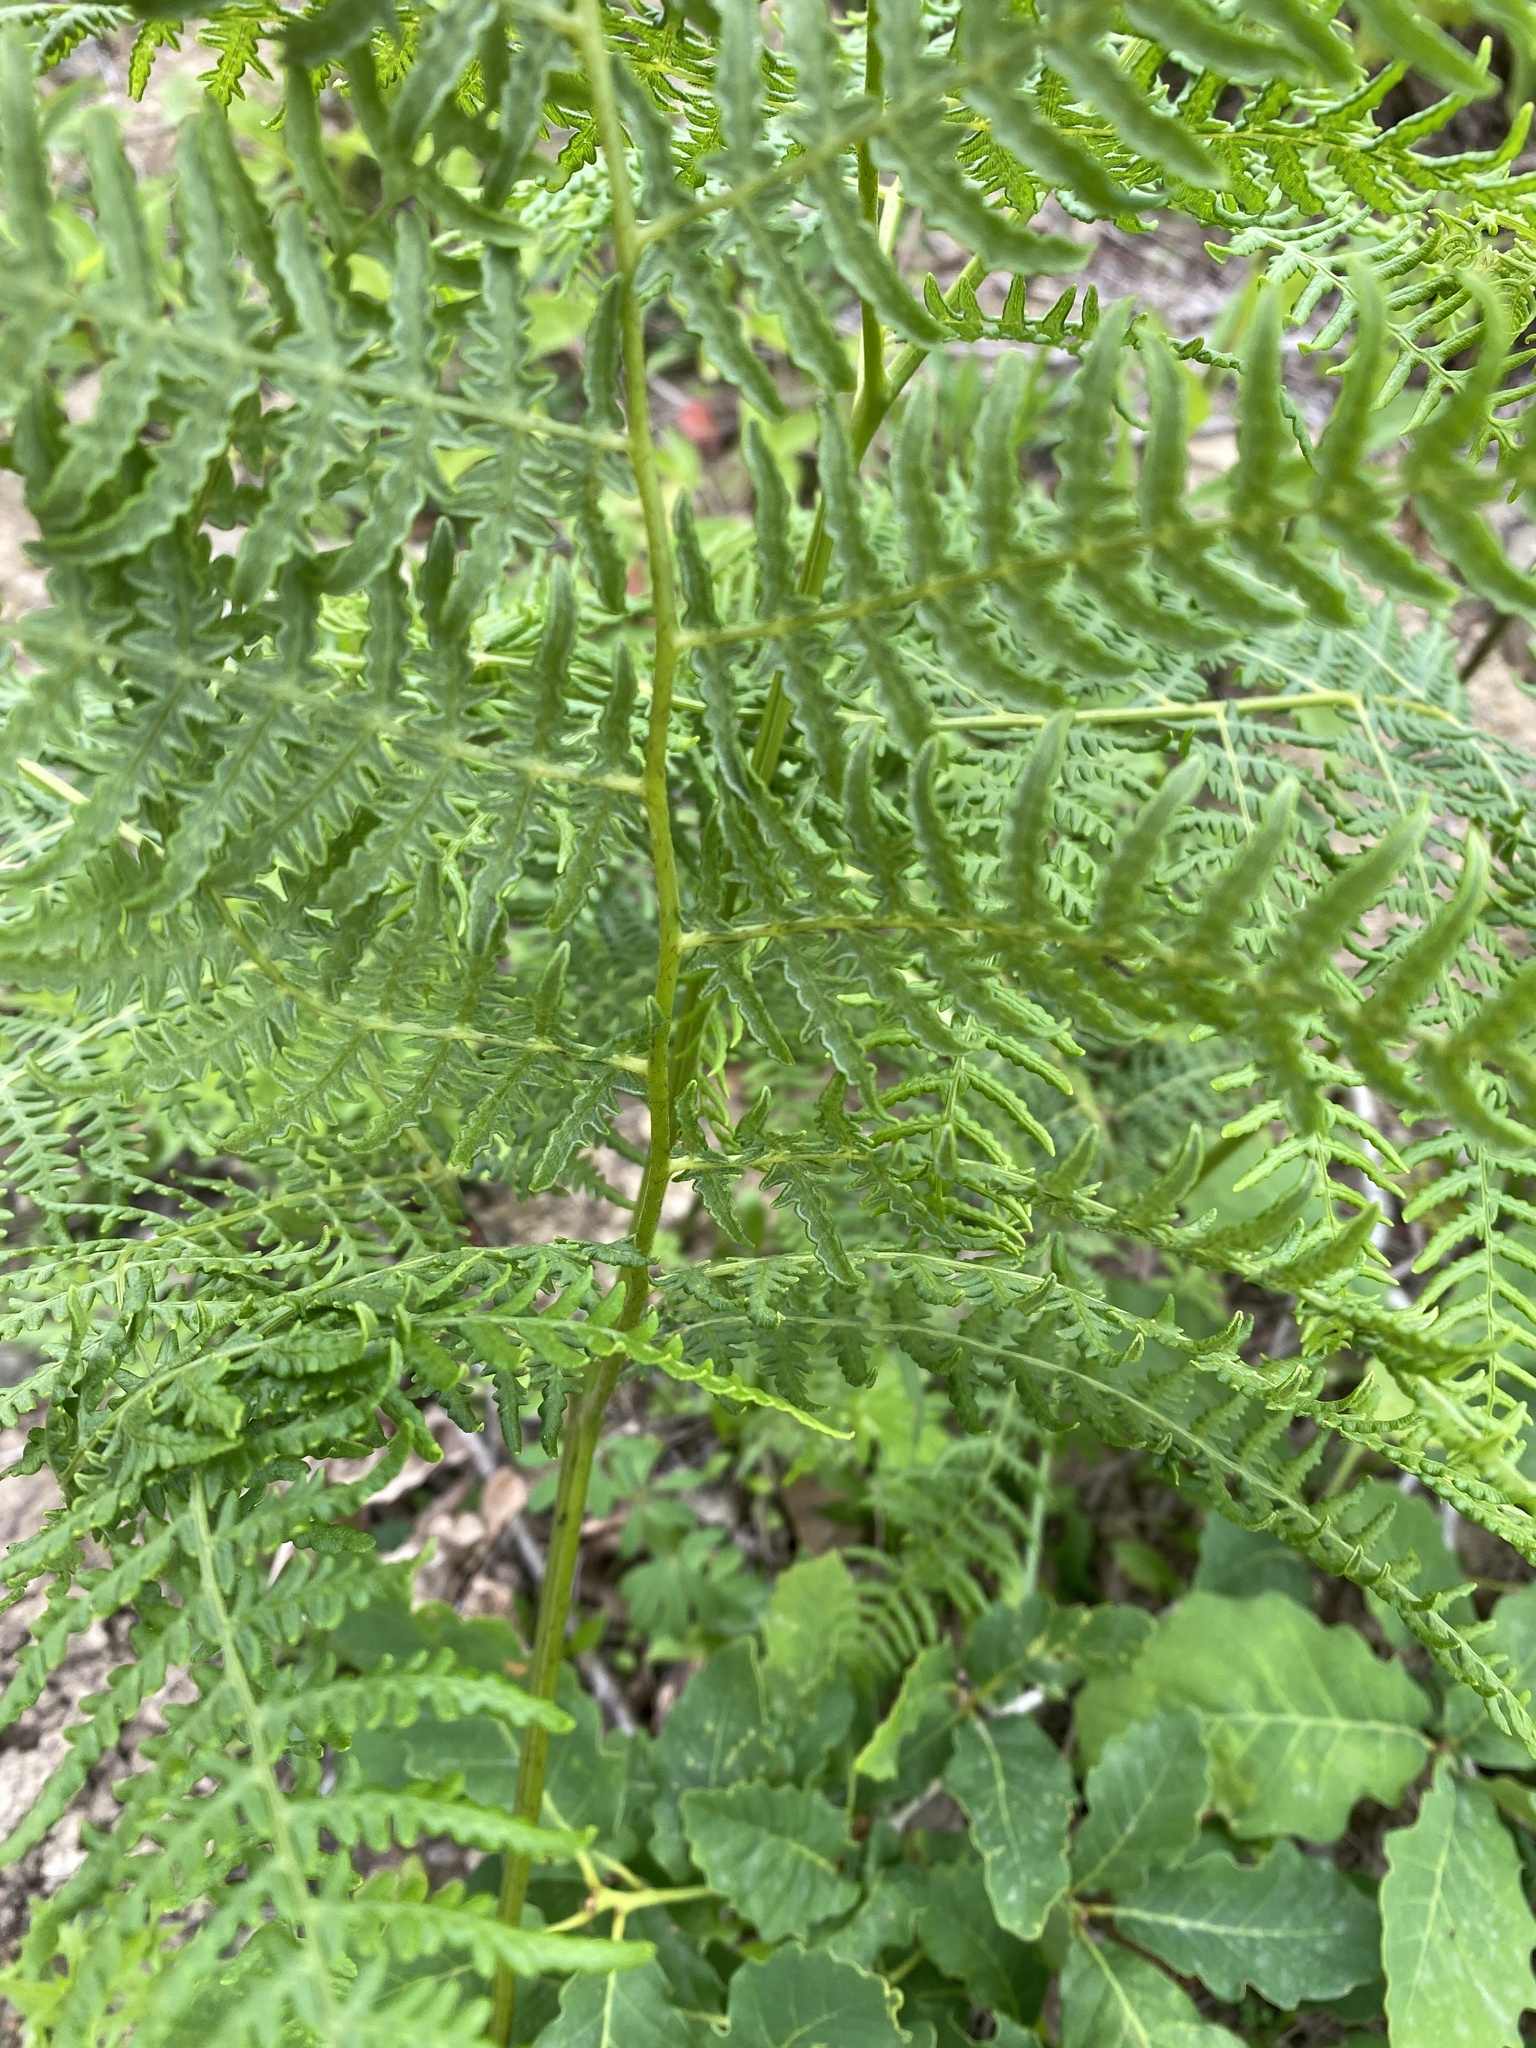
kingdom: Plantae
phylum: Tracheophyta
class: Polypodiopsida
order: Polypodiales
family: Dennstaedtiaceae
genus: Pteridium
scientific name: Pteridium tauricum
